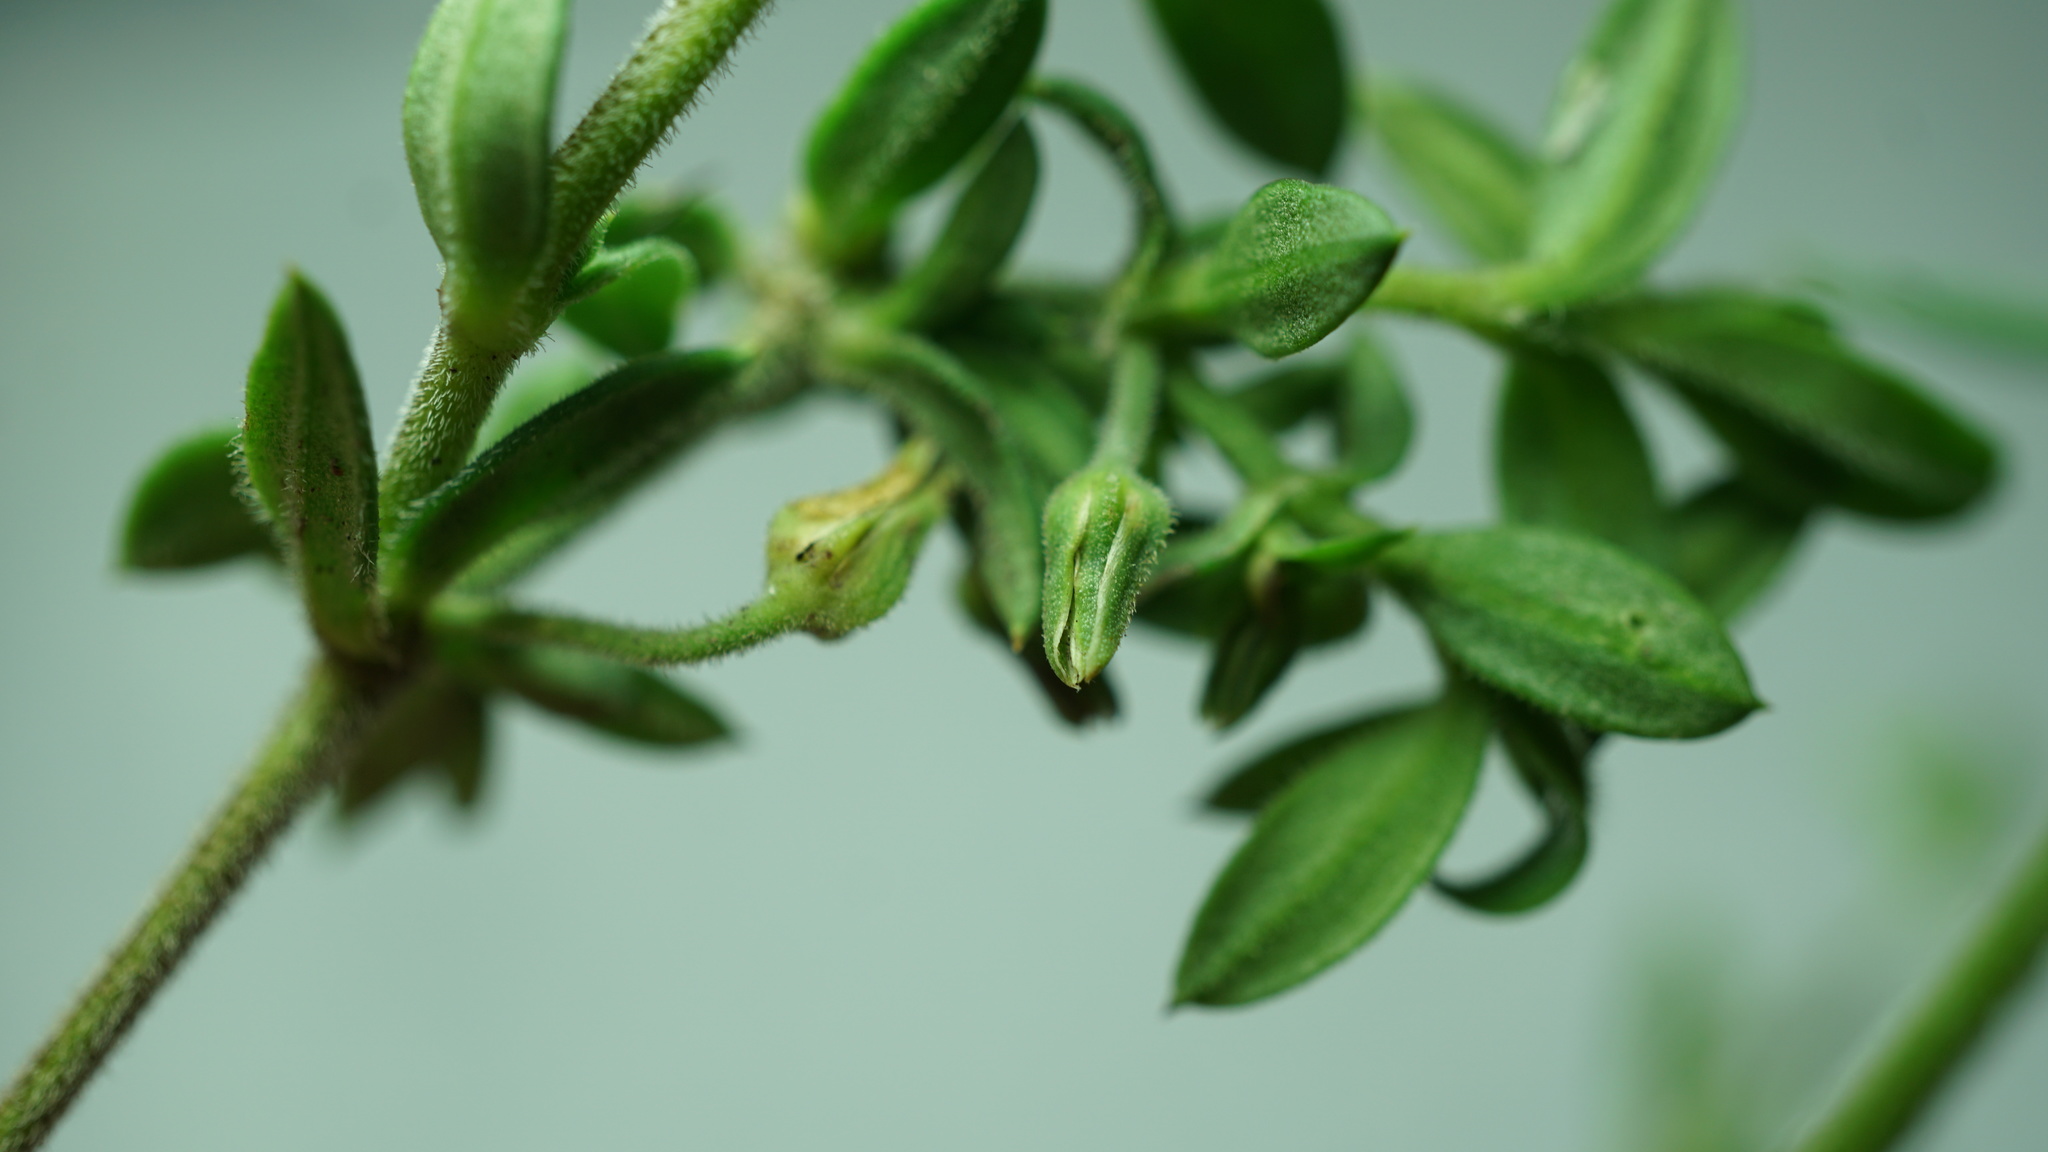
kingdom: Plantae
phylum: Tracheophyta
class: Magnoliopsida
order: Caryophyllales
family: Caryophyllaceae
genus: Arenaria
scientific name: Arenaria lanuginosa
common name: Spread sandwort
